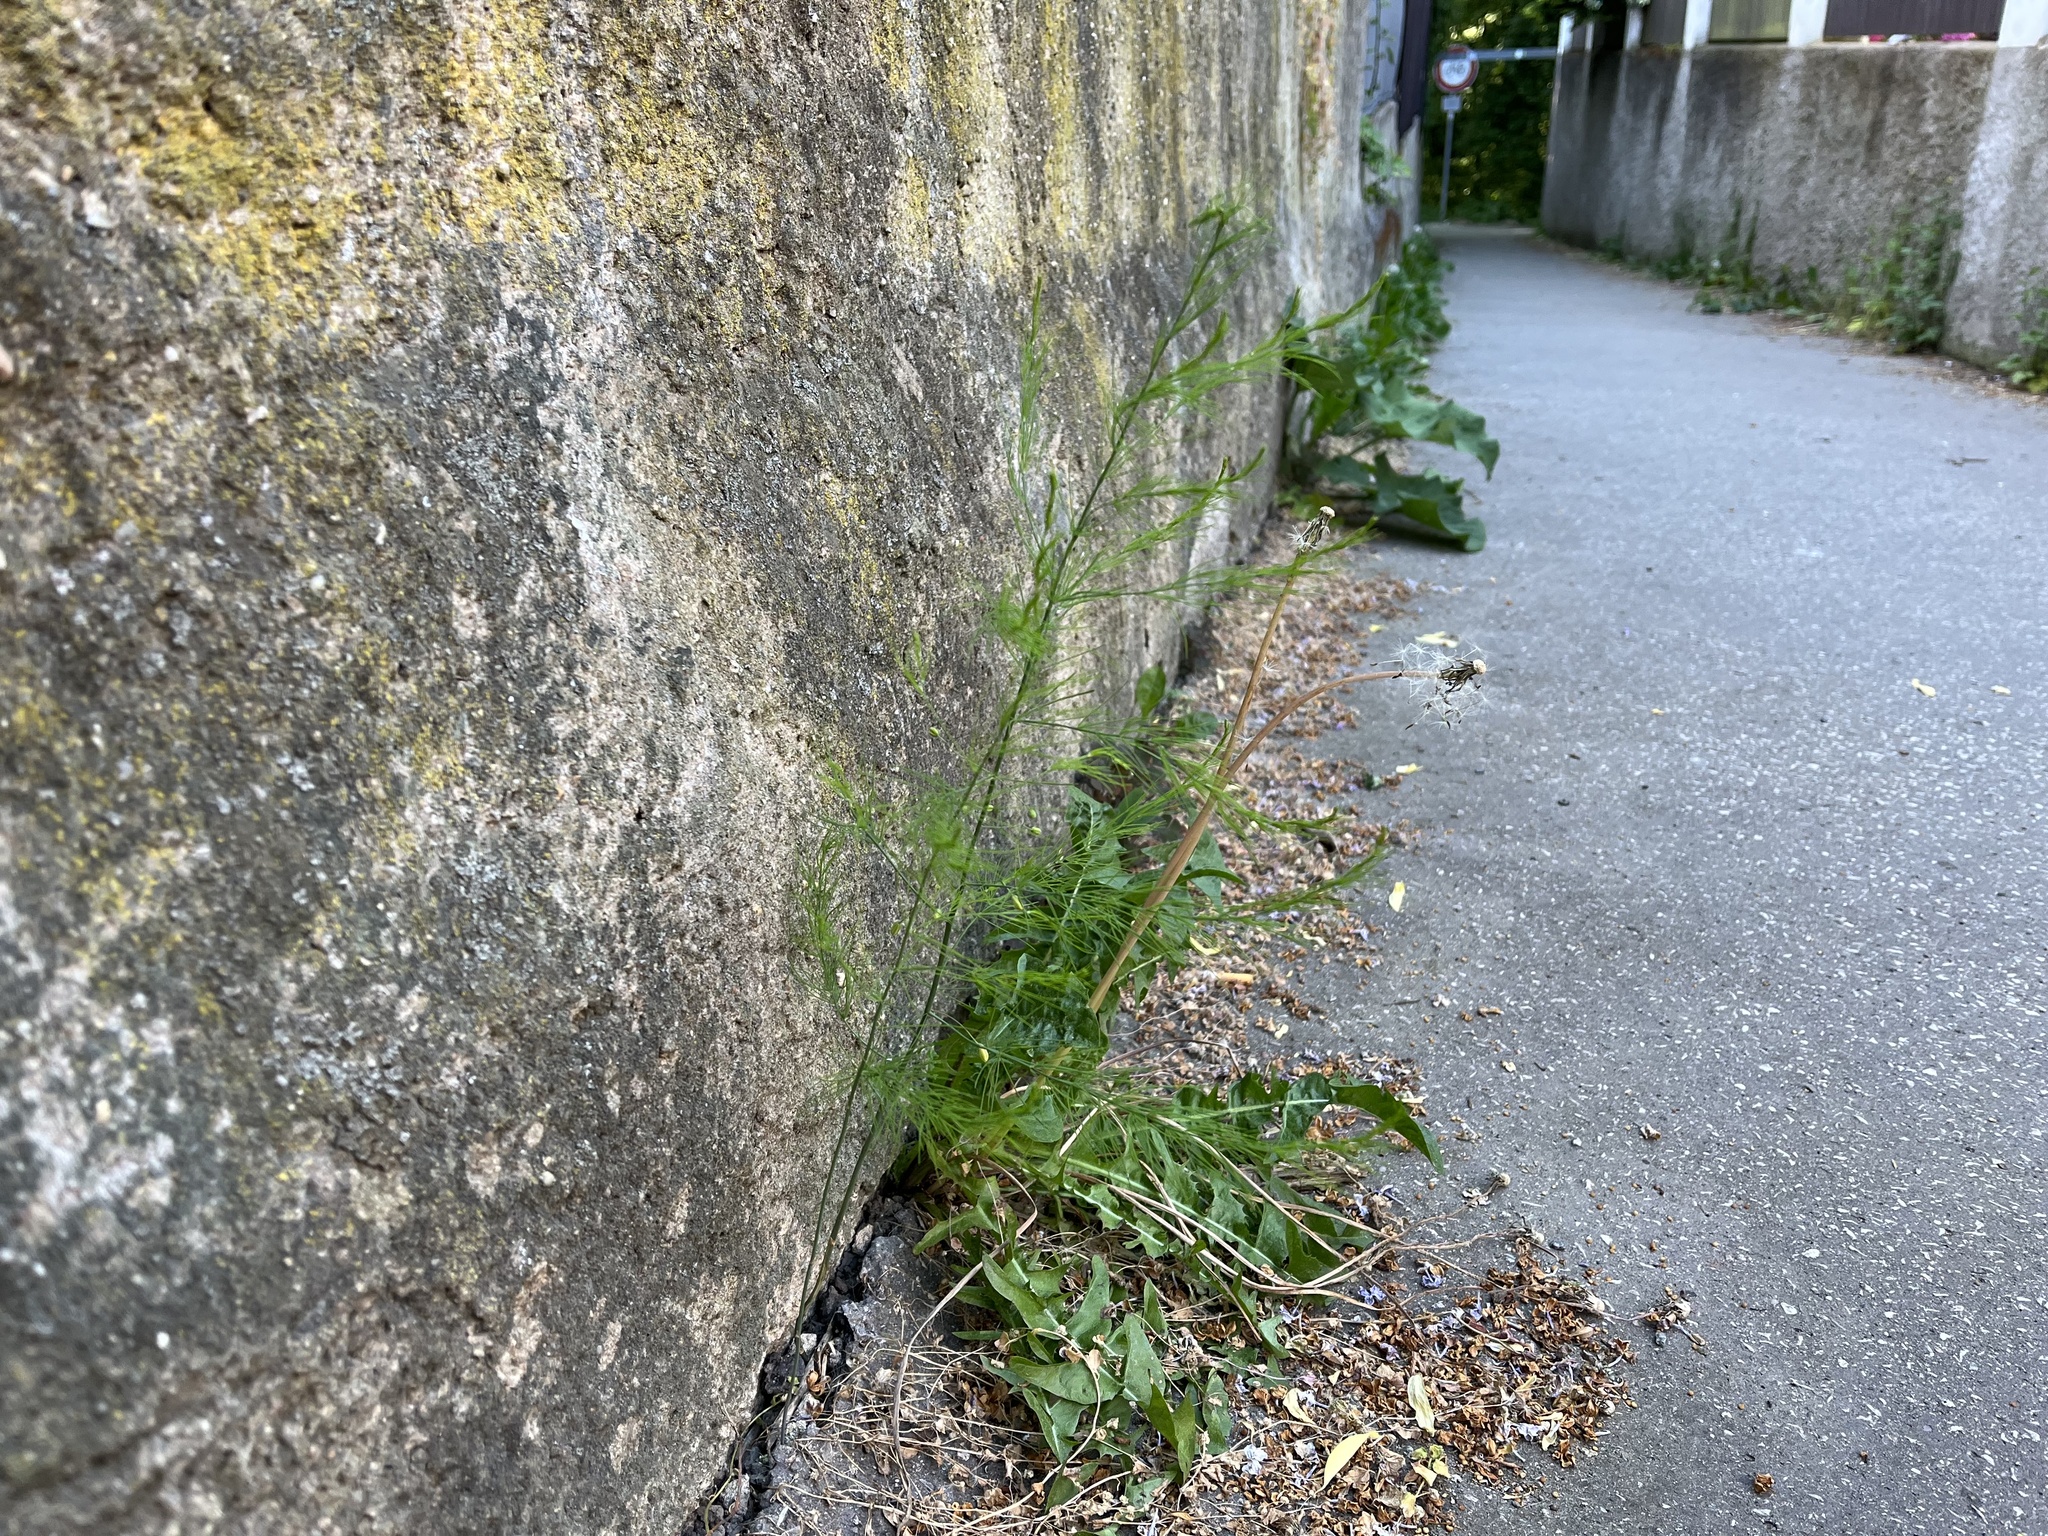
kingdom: Plantae
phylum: Tracheophyta
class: Liliopsida
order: Asparagales
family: Asparagaceae
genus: Asparagus
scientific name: Asparagus officinalis
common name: Garden asparagus
